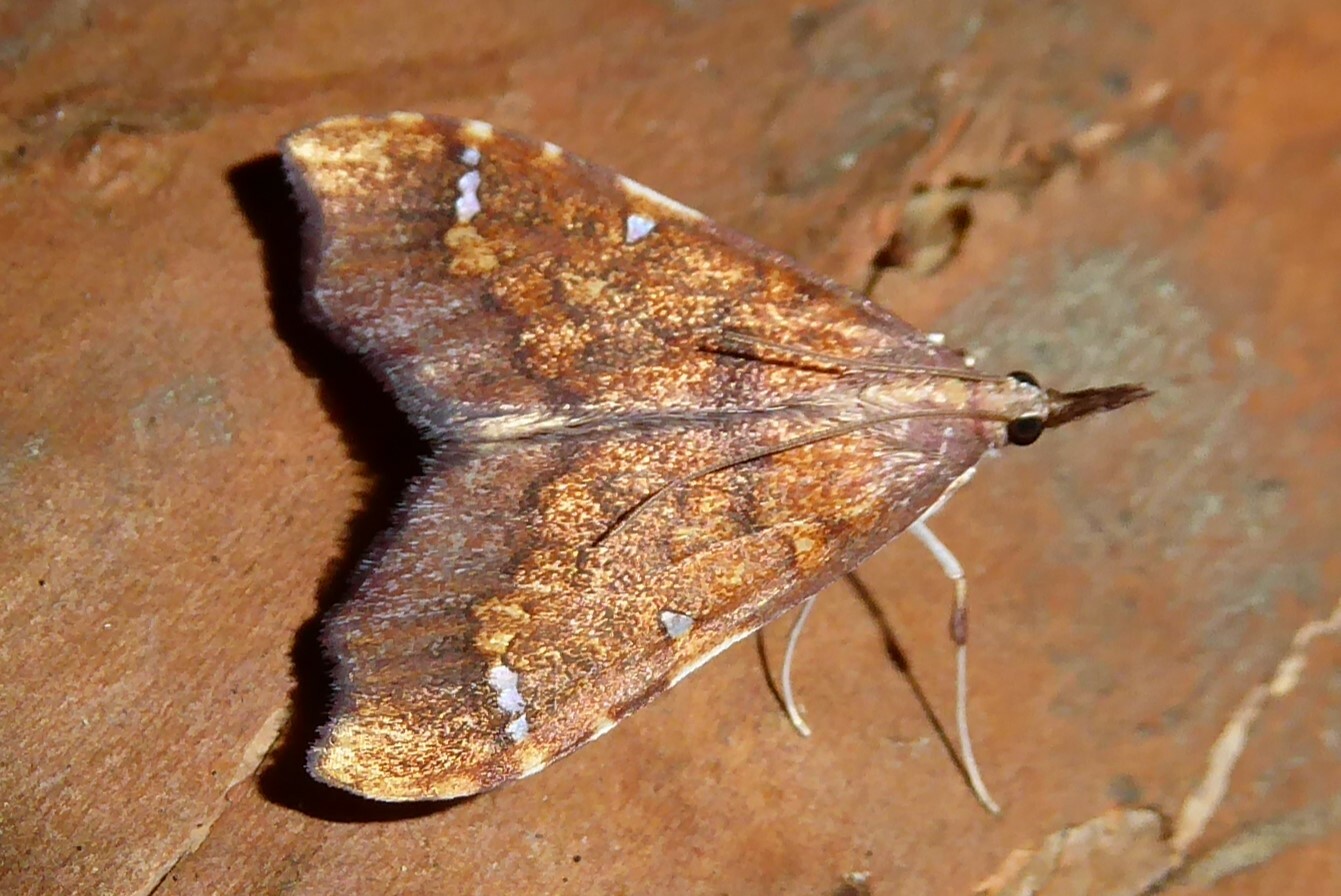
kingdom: Animalia
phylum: Arthropoda
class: Insecta
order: Lepidoptera
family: Crambidae
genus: Deana
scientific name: Deana hybreasalis
